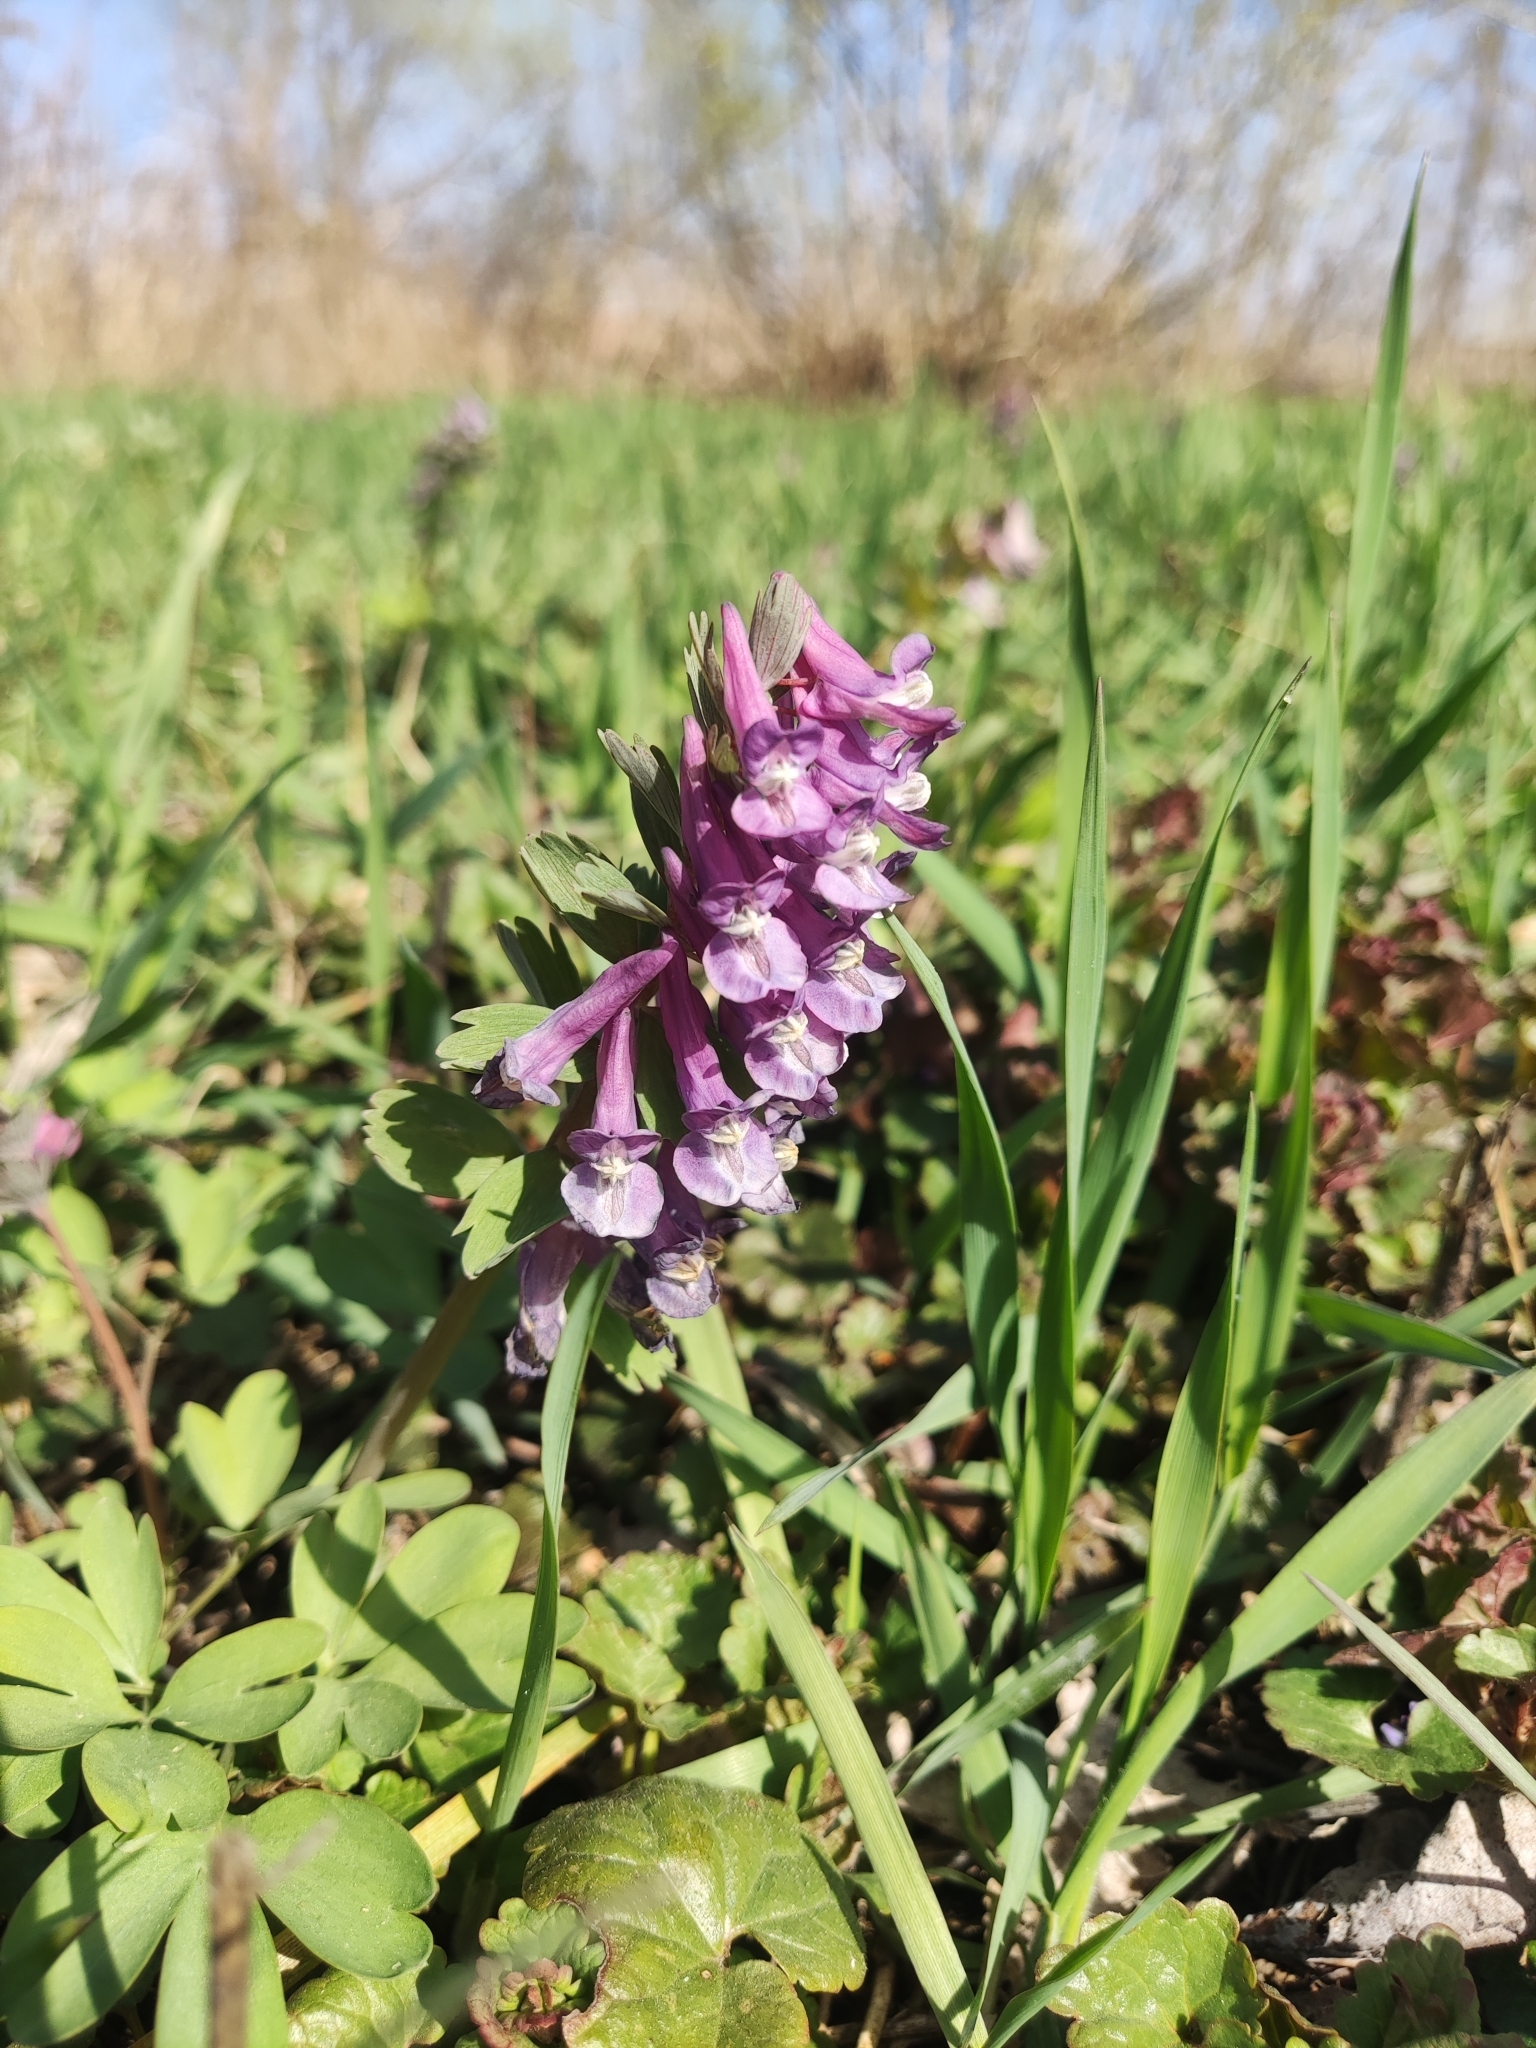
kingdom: Plantae
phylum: Tracheophyta
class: Magnoliopsida
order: Ranunculales
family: Papaveraceae
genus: Corydalis
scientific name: Corydalis solida
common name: Bird-in-a-bush
